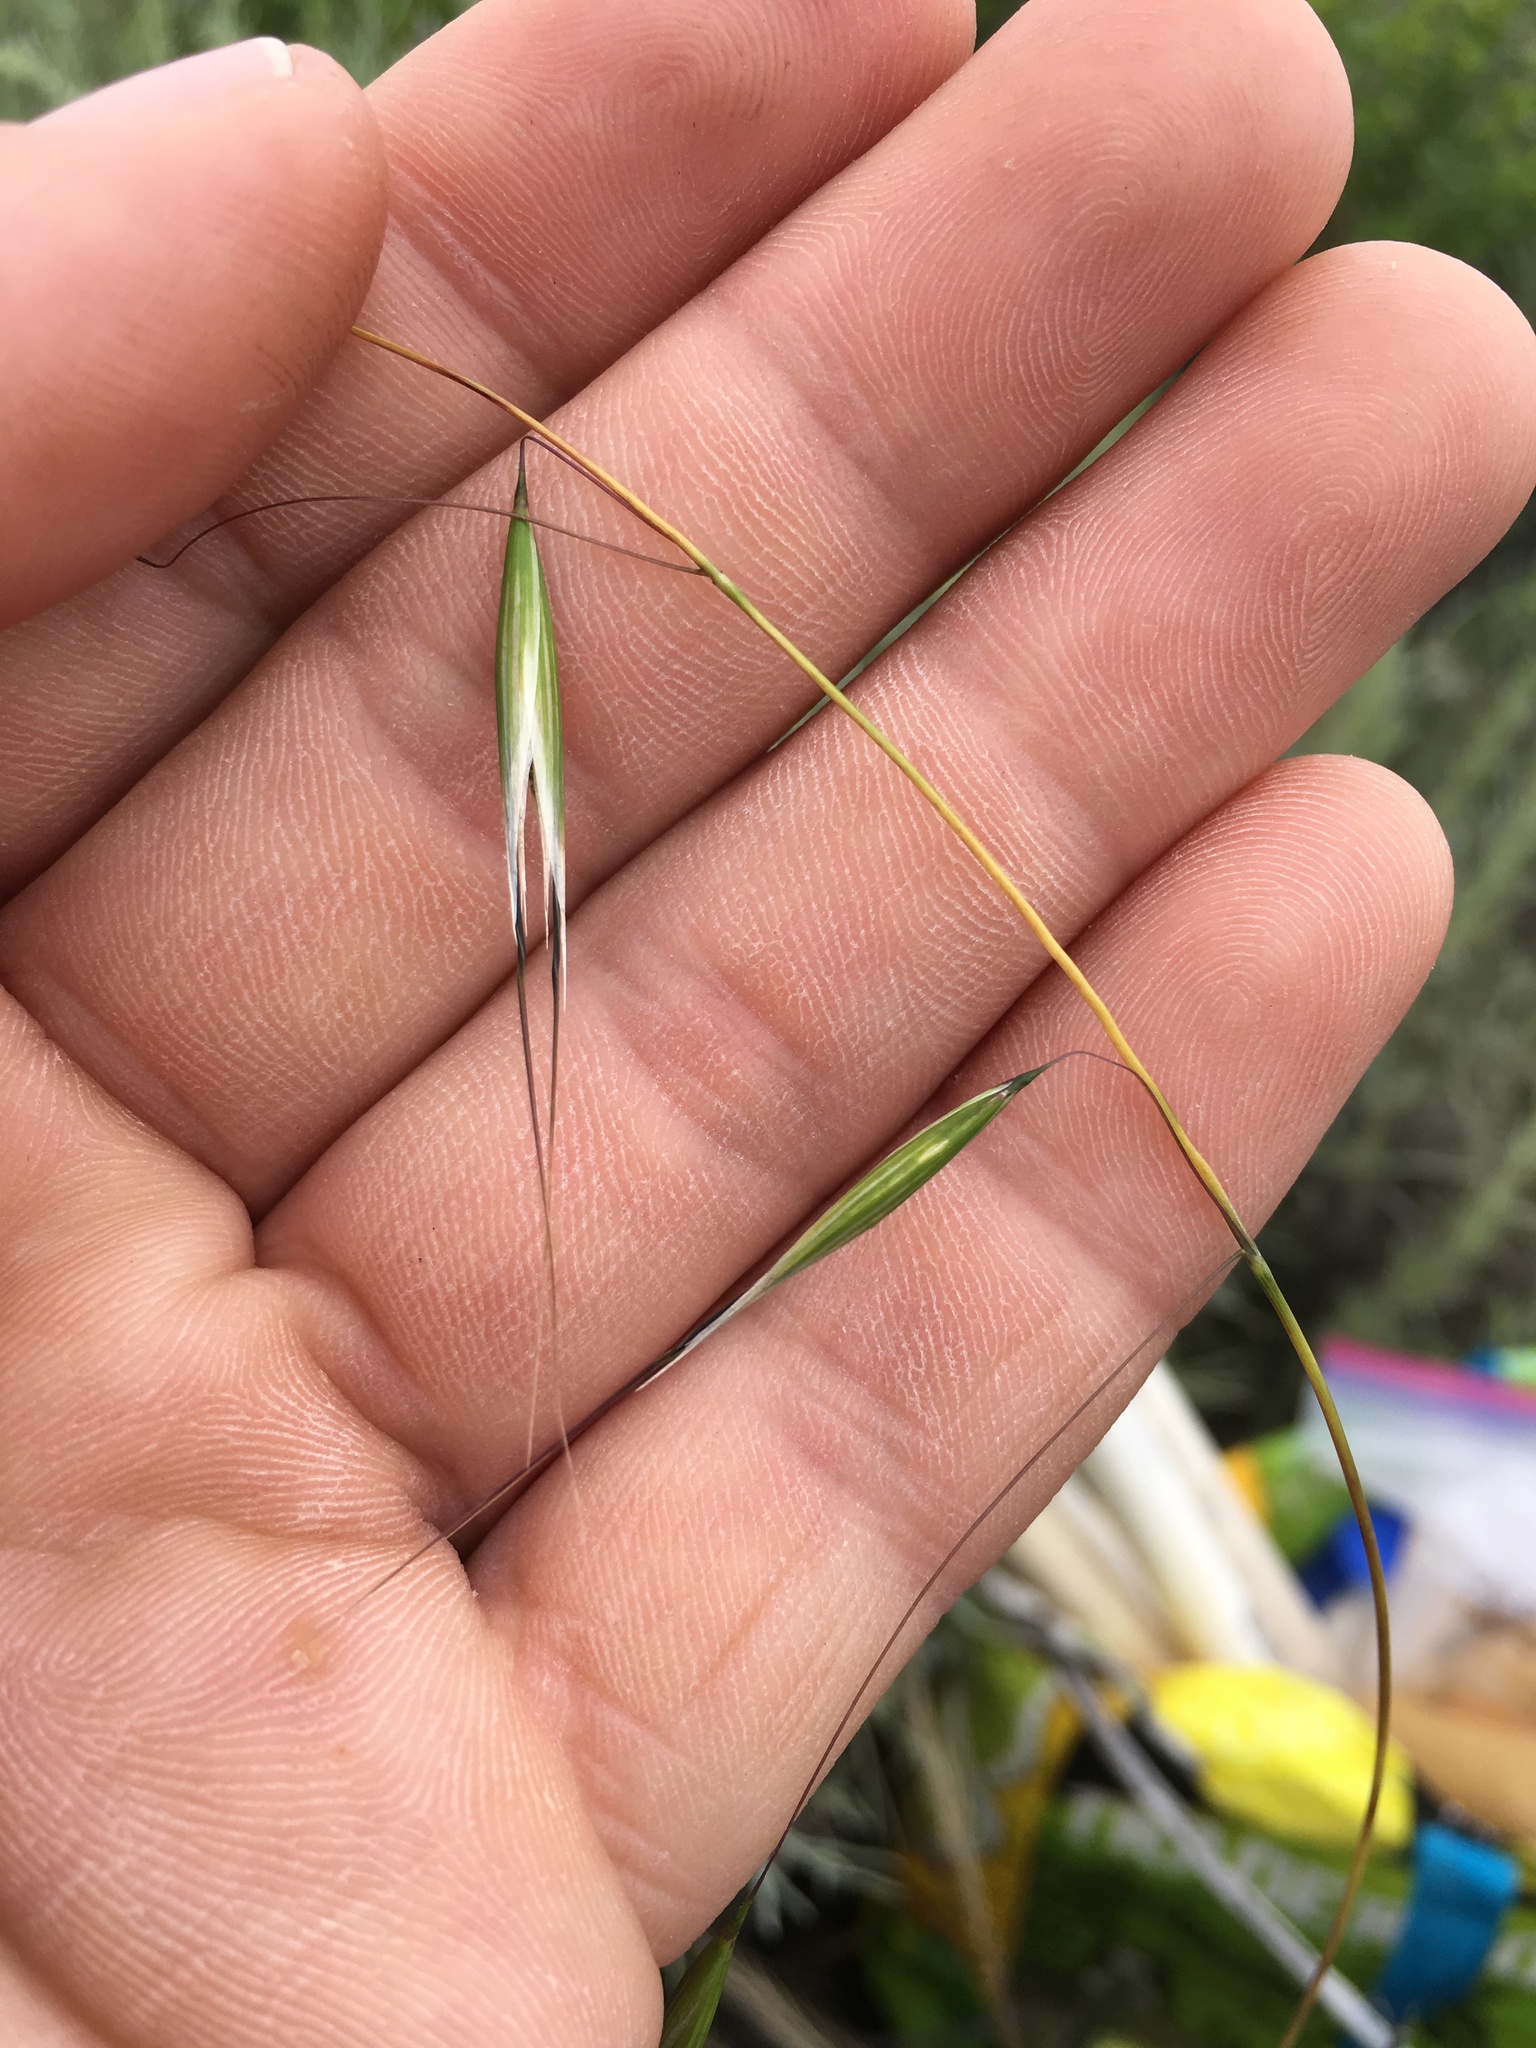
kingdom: Plantae
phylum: Tracheophyta
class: Liliopsida
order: Poales
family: Poaceae
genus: Avena
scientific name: Avena barbata
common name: Slender oat
